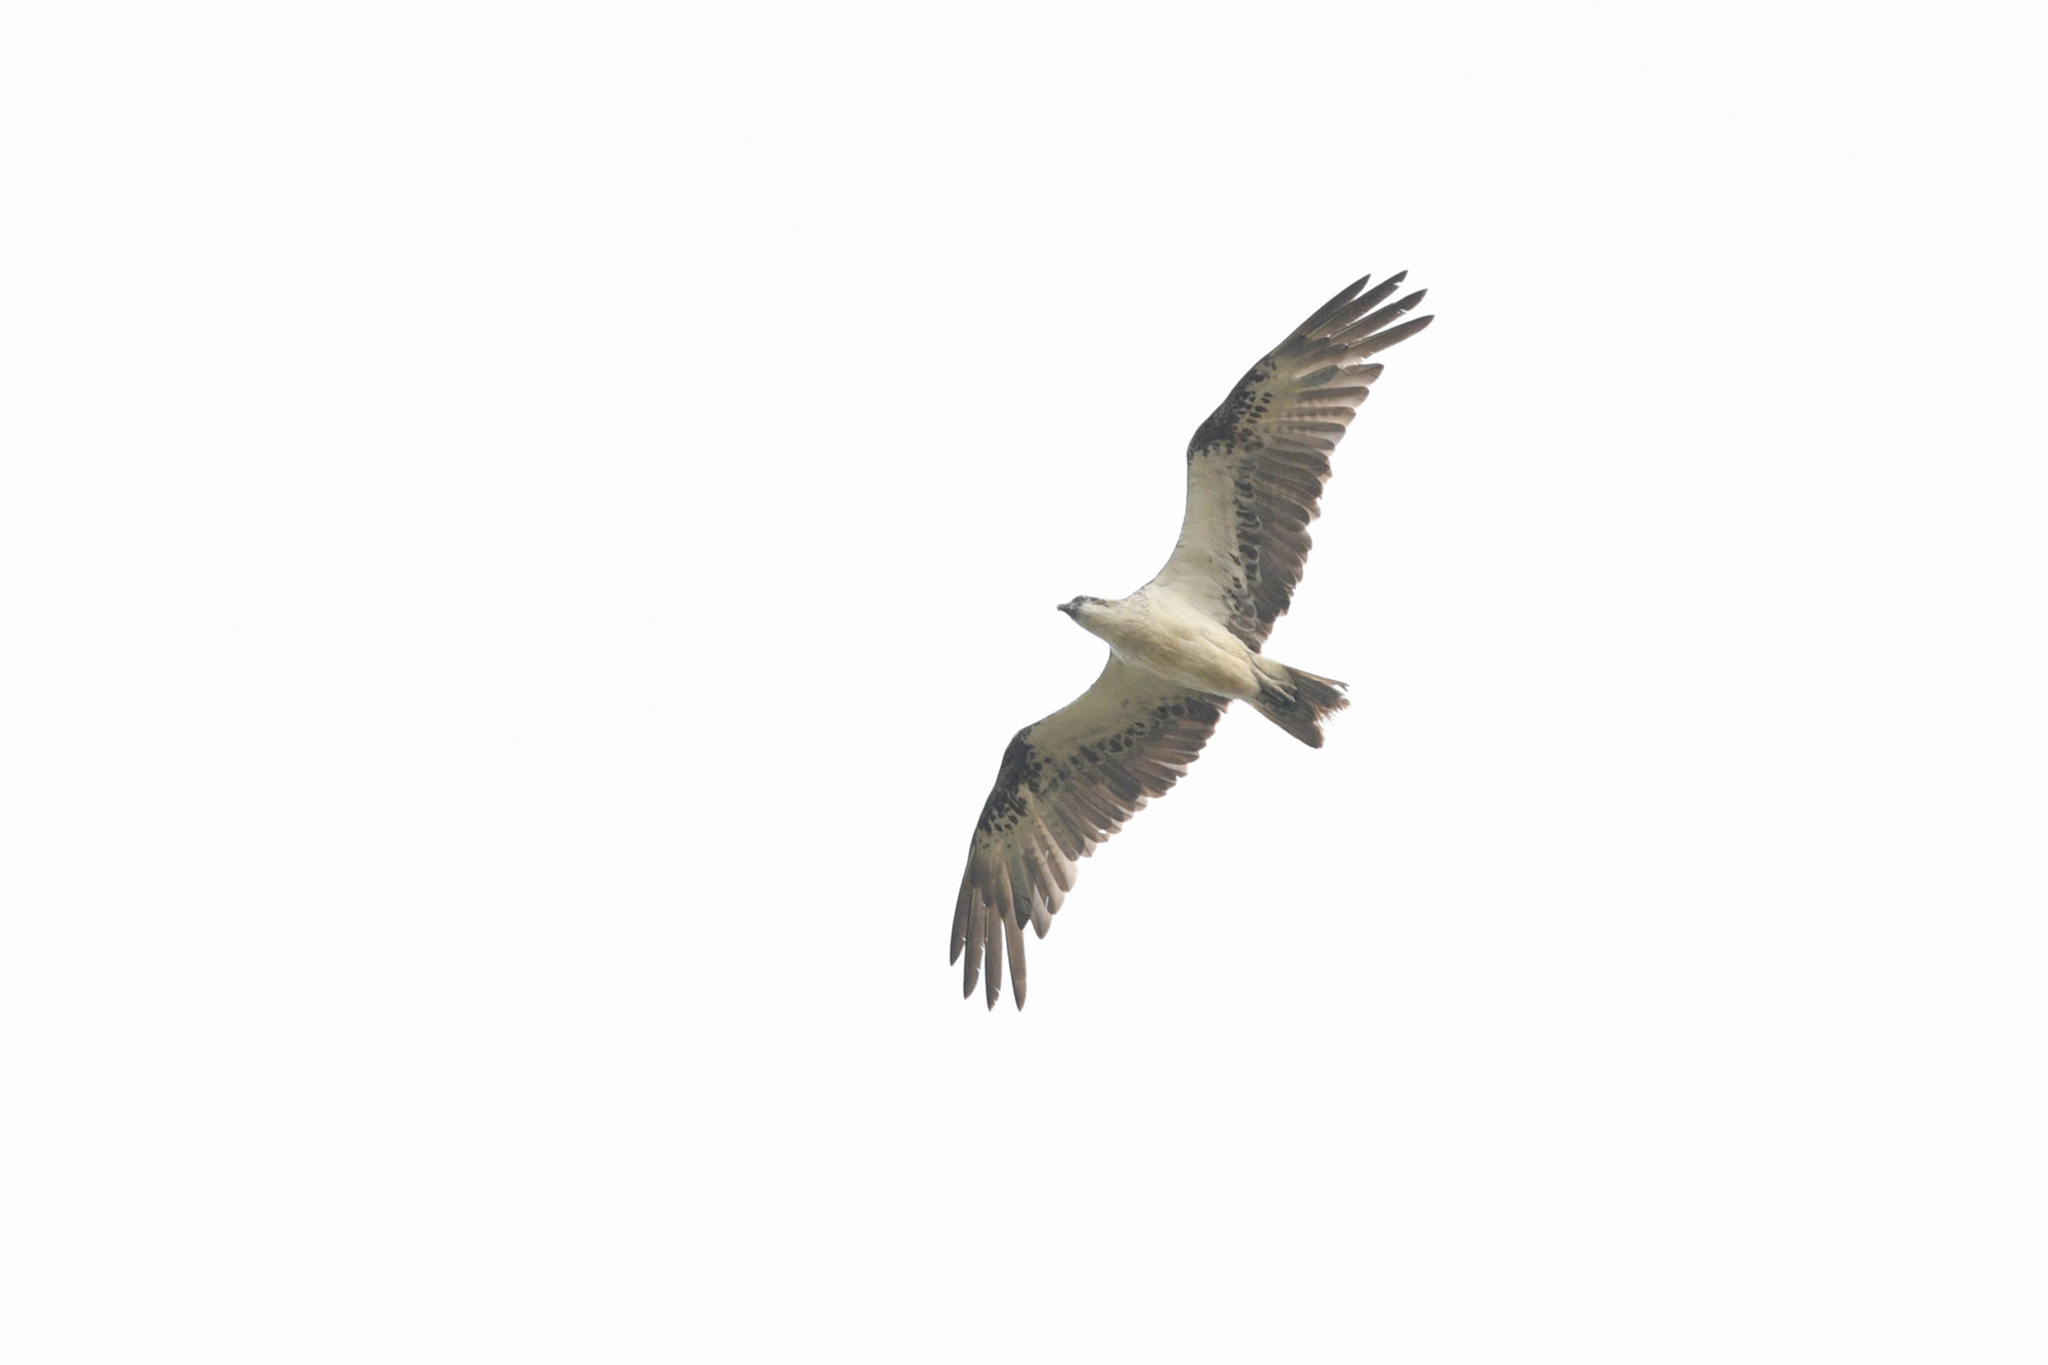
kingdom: Animalia
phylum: Chordata
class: Aves
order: Accipitriformes
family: Pandionidae
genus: Pandion
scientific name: Pandion haliaetus
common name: Osprey
